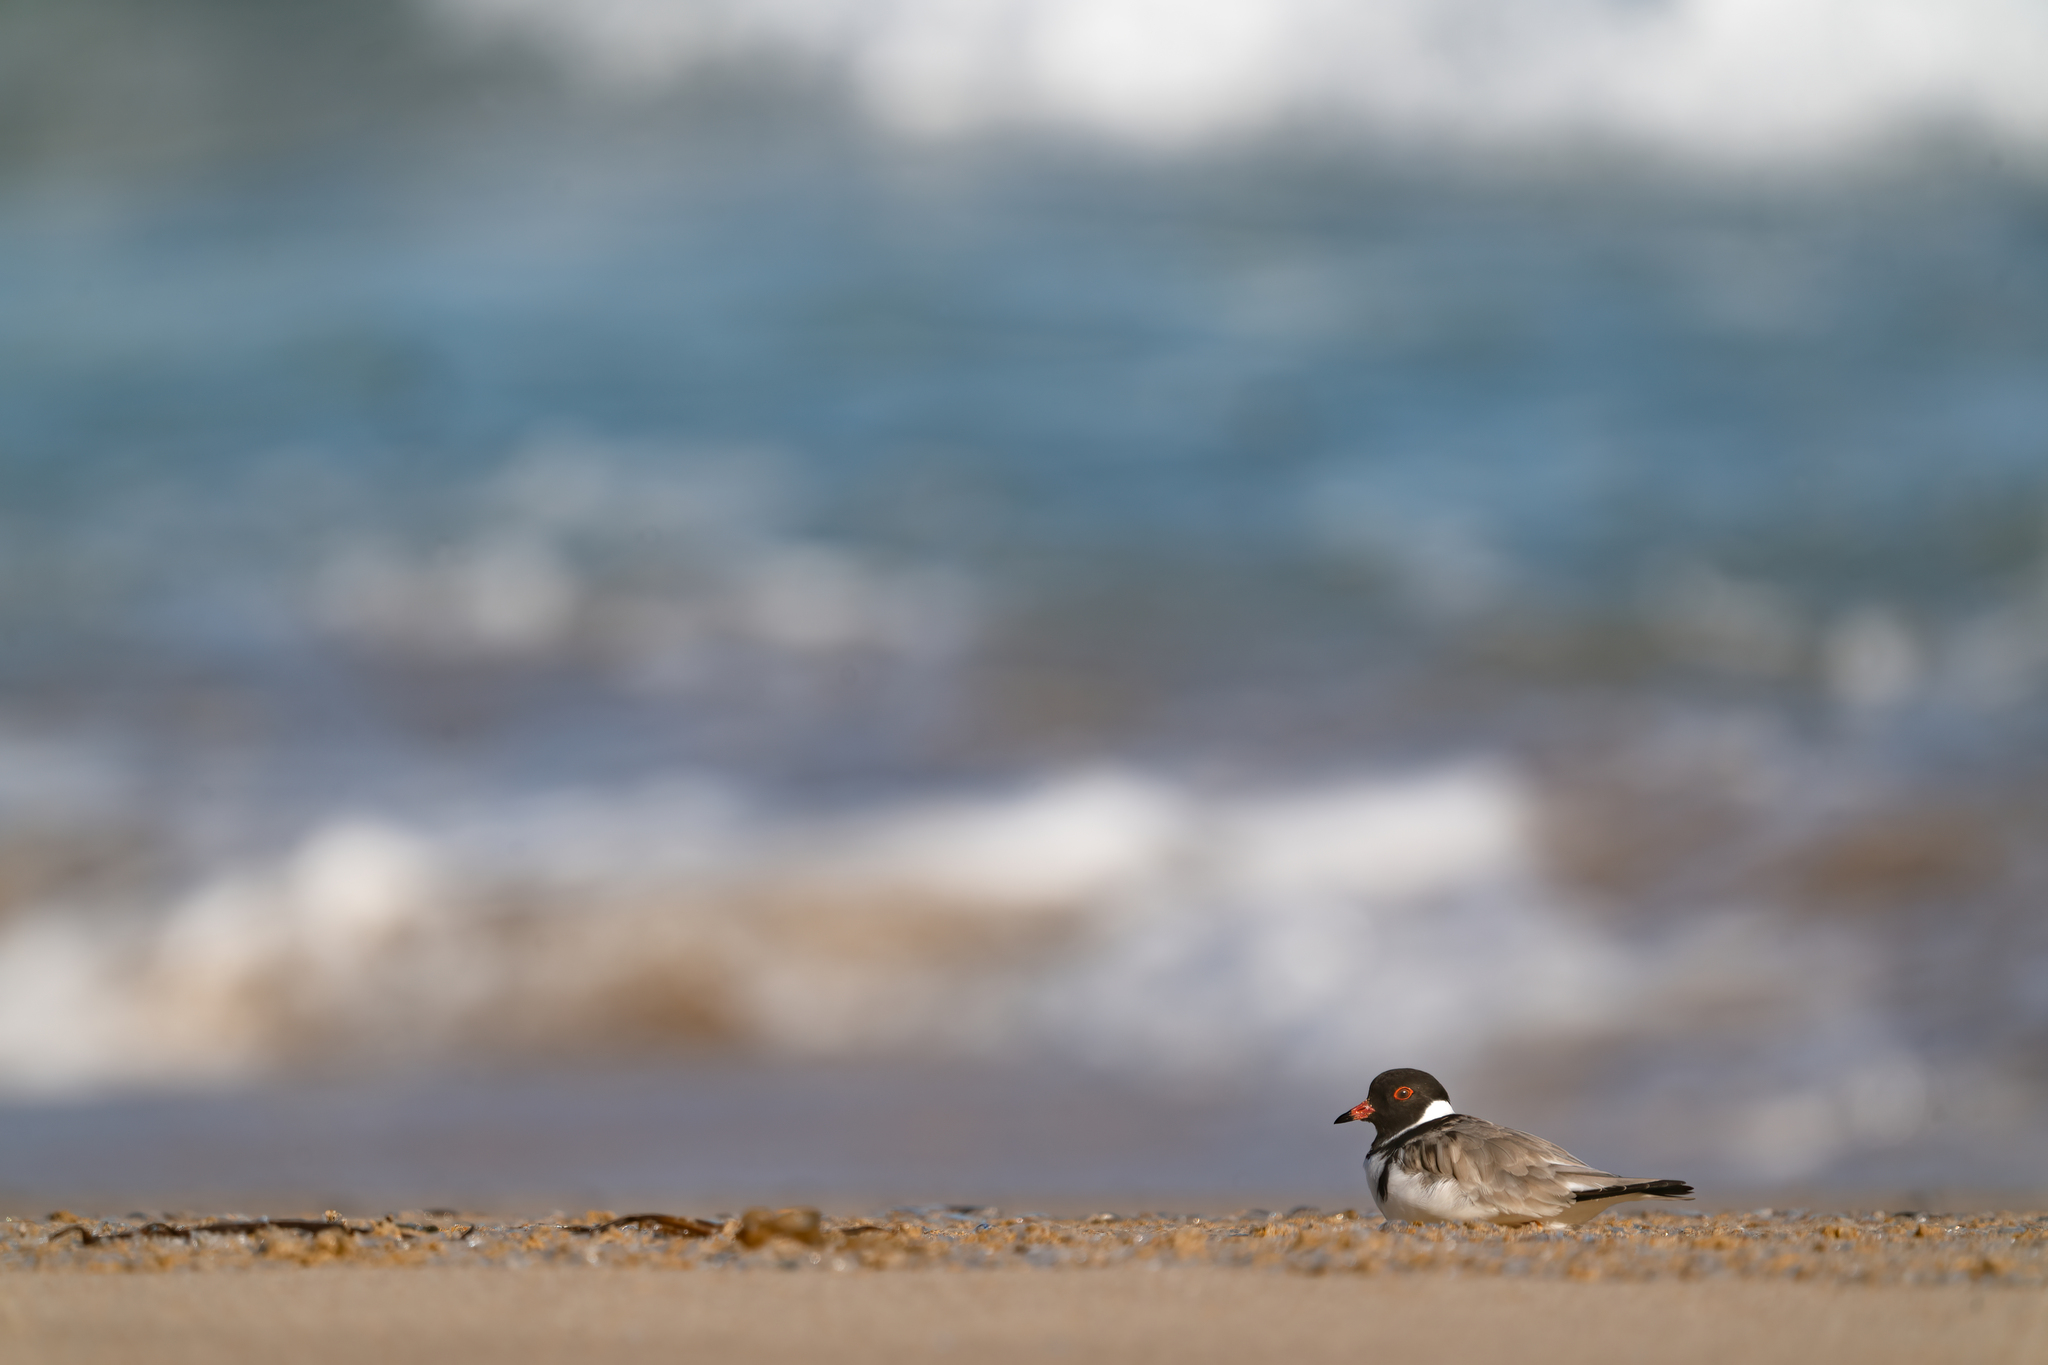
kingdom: Animalia
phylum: Chordata
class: Aves
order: Charadriiformes
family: Charadriidae
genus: Thinornis
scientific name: Thinornis cucullatus
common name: Hooded dotterel
